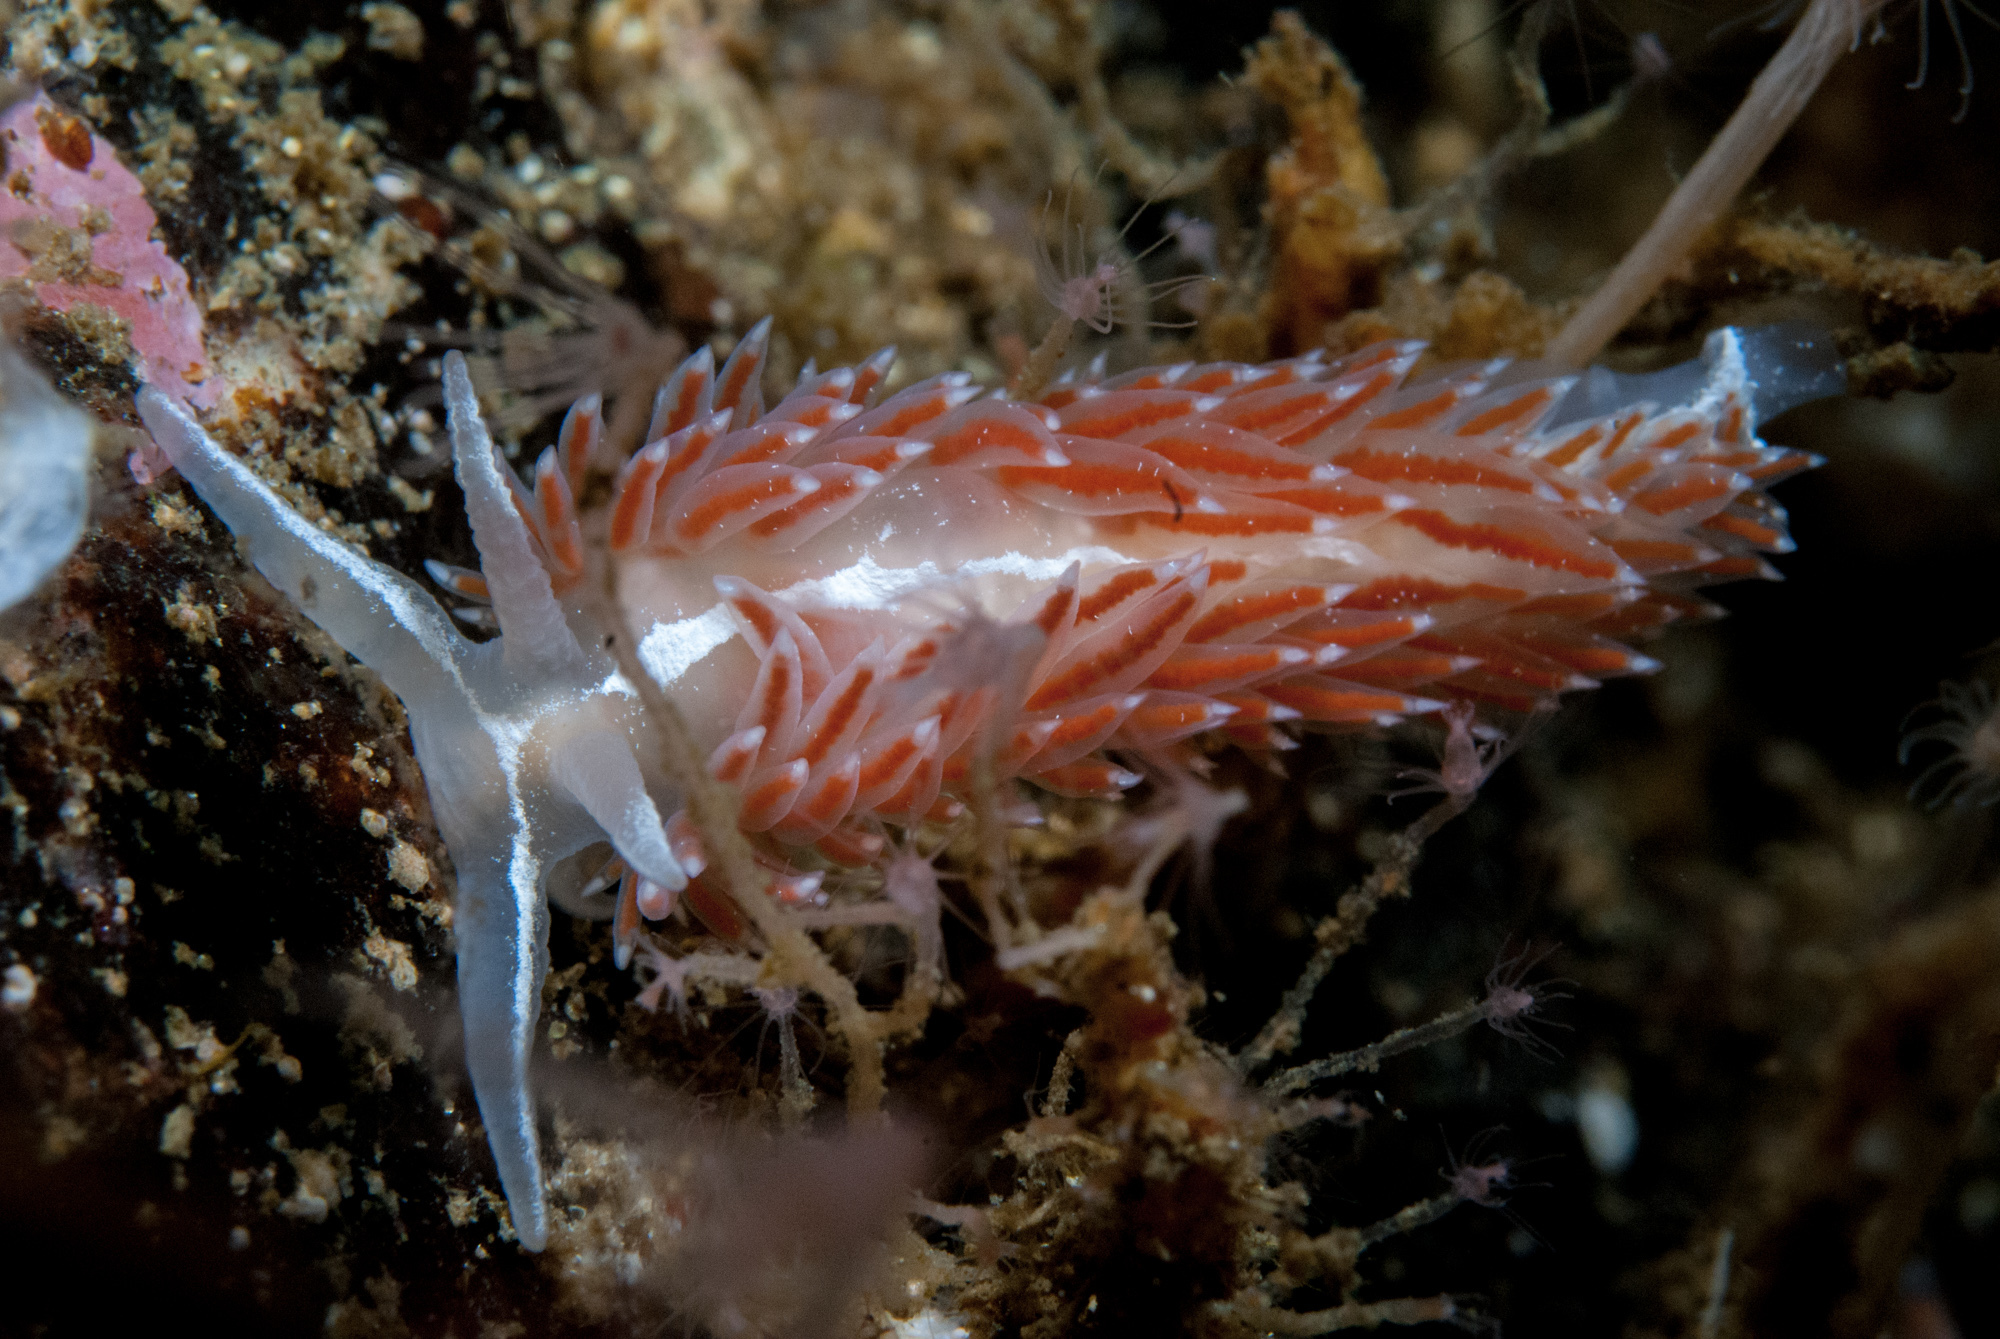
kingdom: Animalia
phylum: Mollusca
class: Gastropoda
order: Nudibranchia
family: Coryphellidae
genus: Coryphella
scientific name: Coryphella monicae
